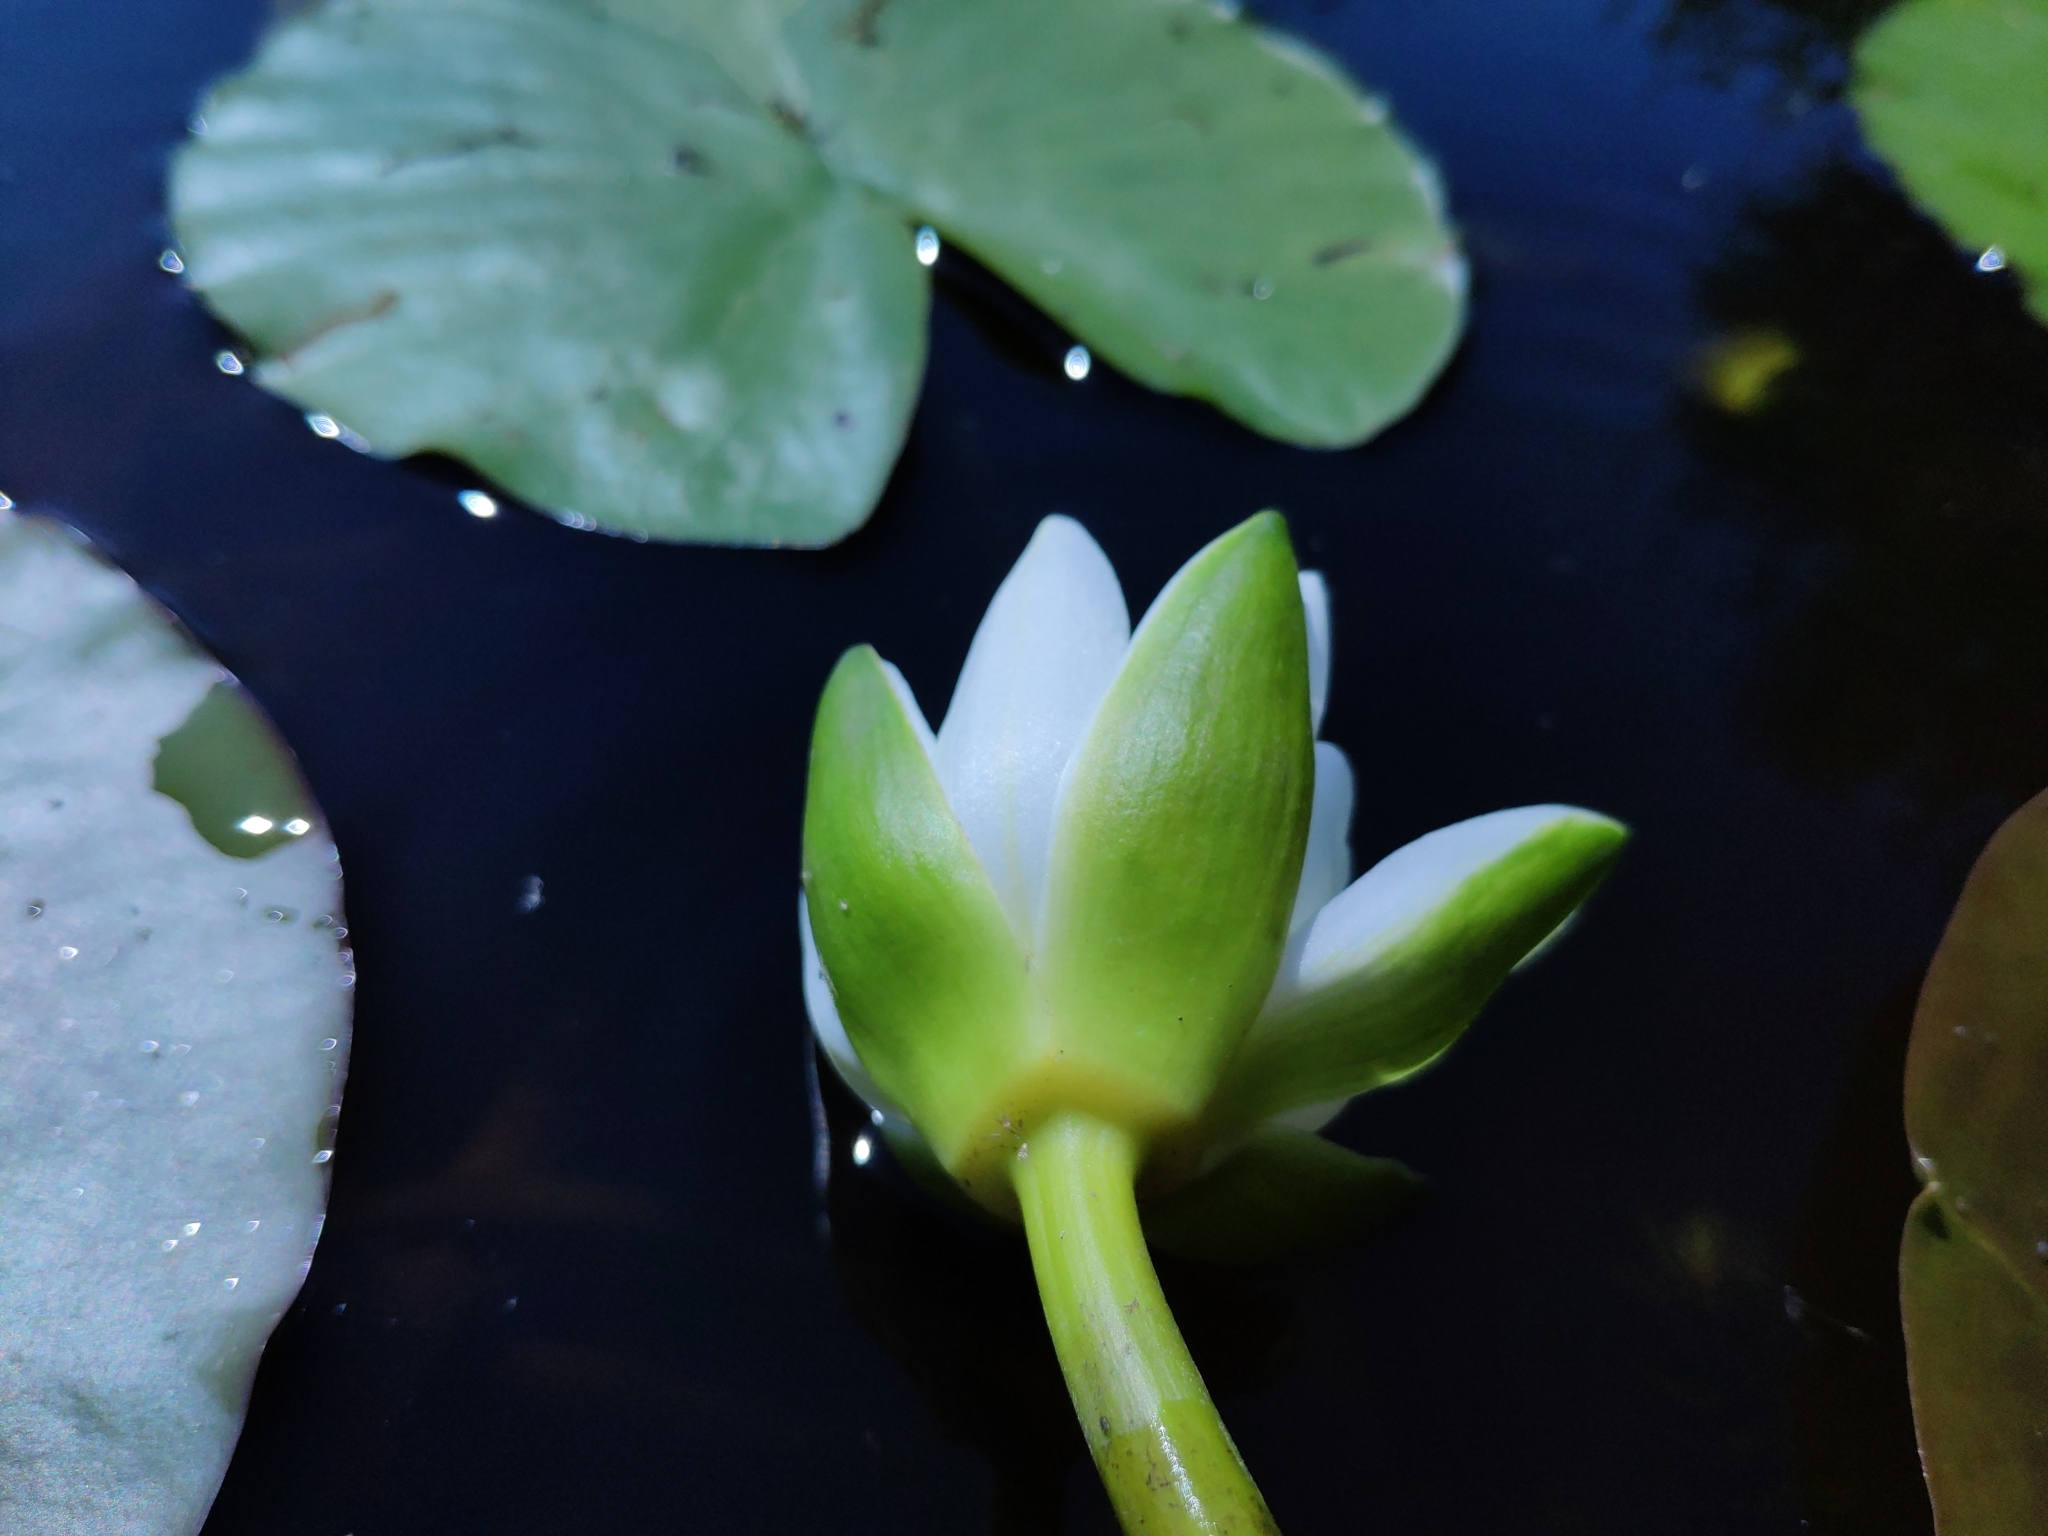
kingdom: Plantae
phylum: Tracheophyta
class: Magnoliopsida
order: Nymphaeales
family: Nymphaeaceae
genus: Nymphaea
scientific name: Nymphaea candida
